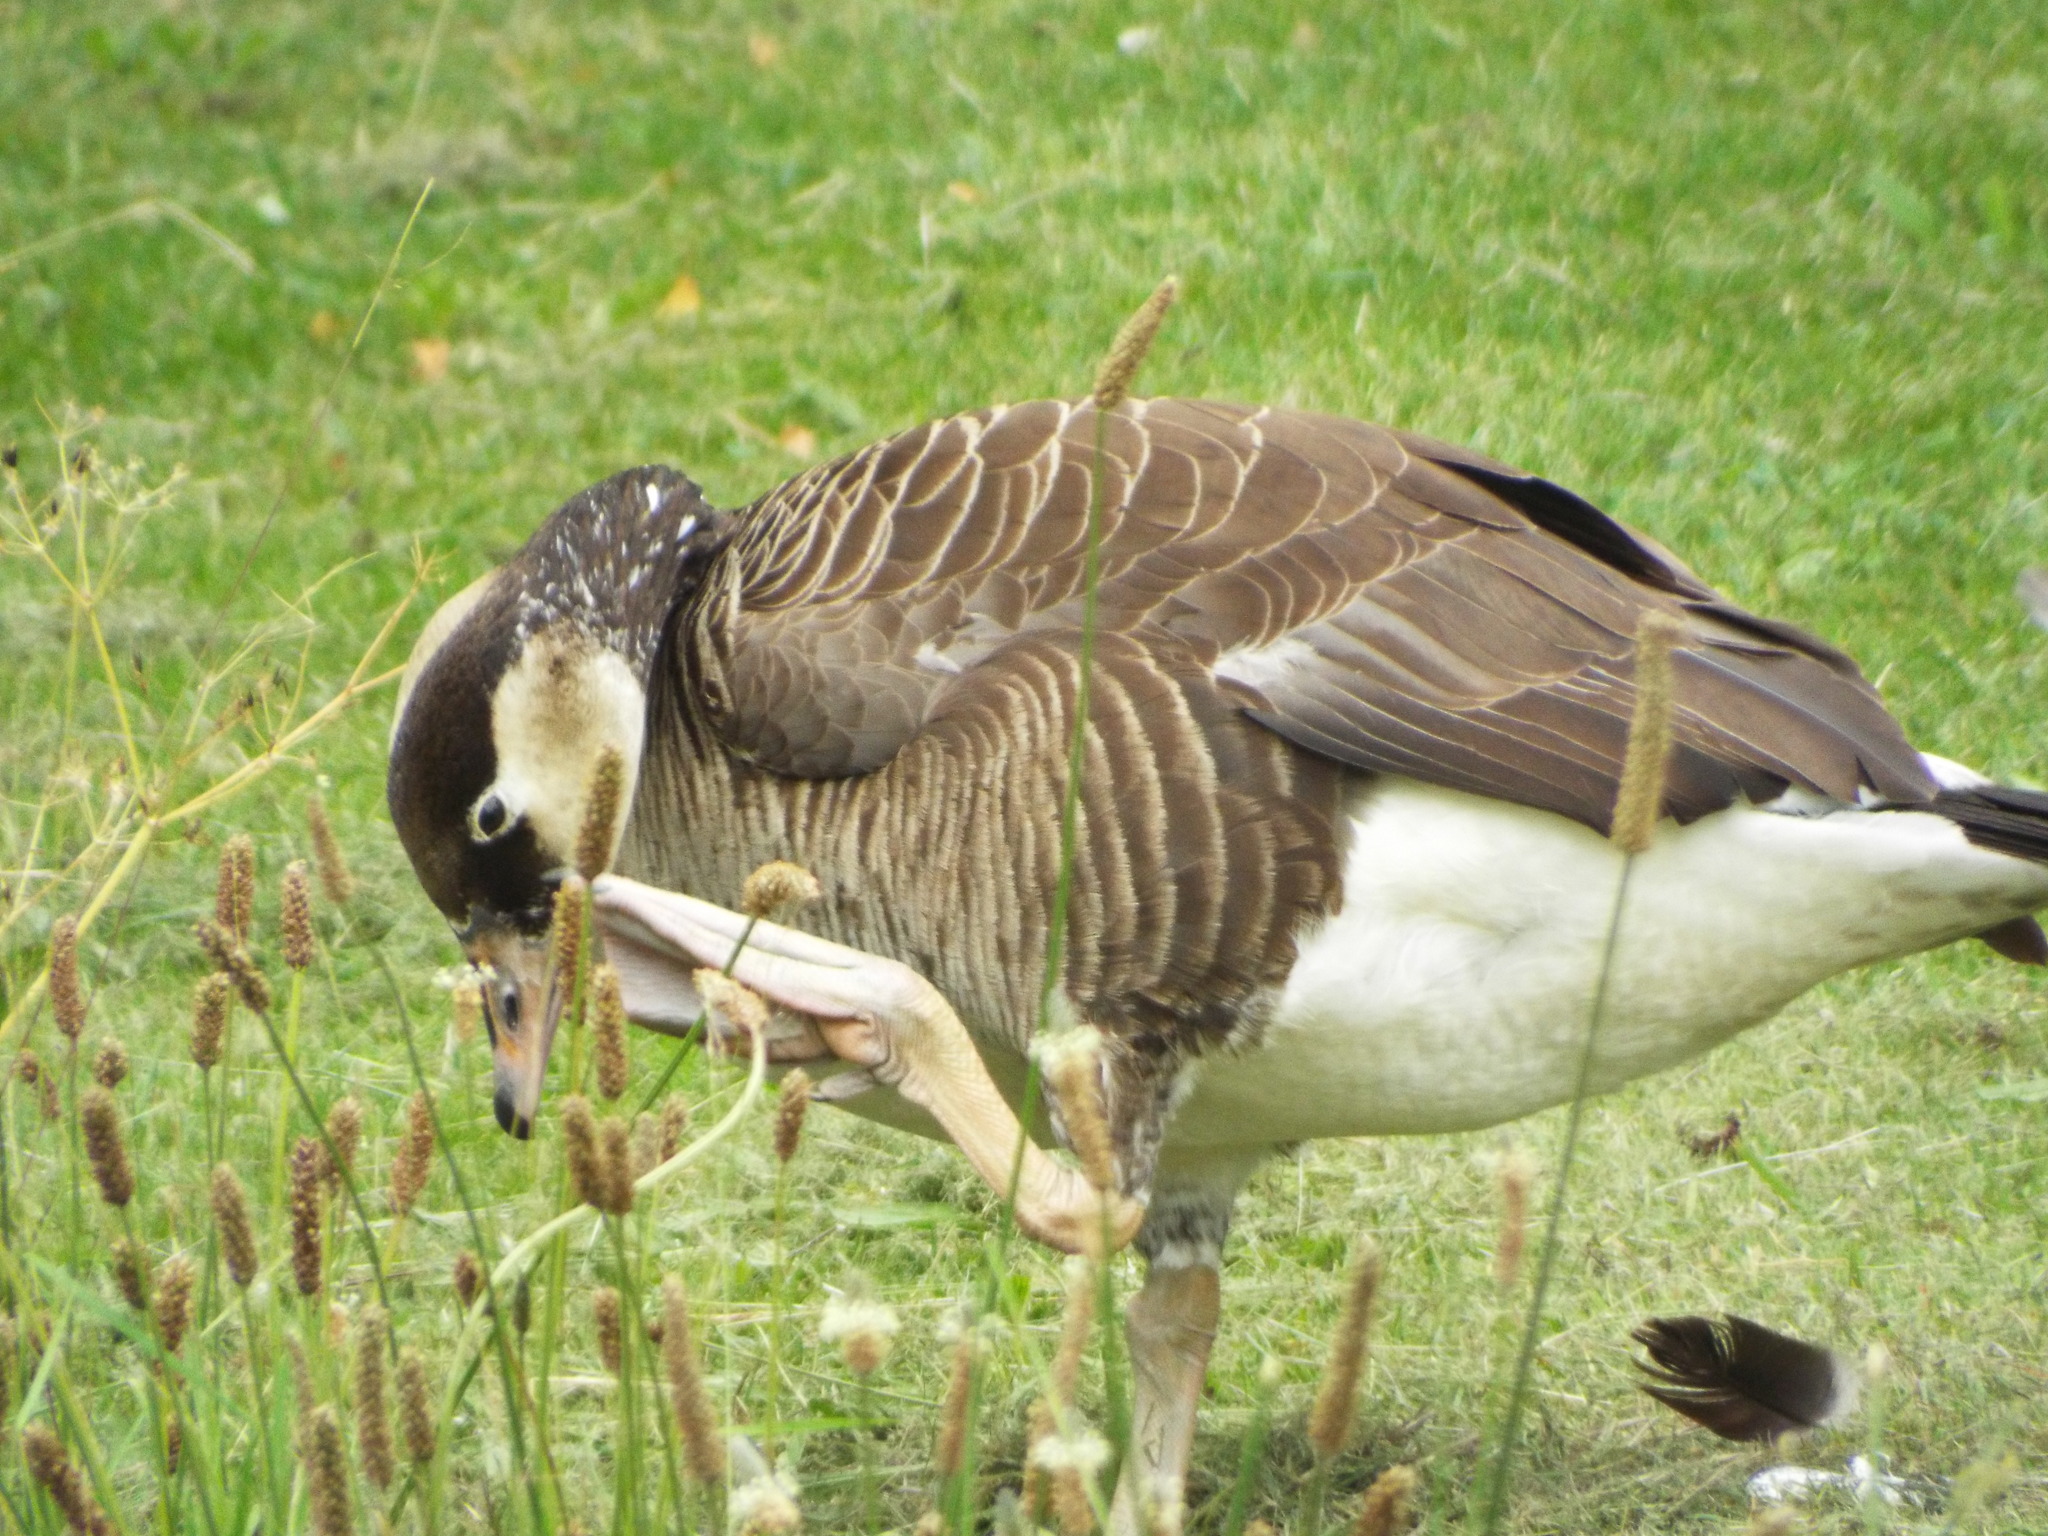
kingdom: Animalia
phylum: Chordata
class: Aves
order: Anseriformes
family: Anatidae
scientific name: Anatidae
